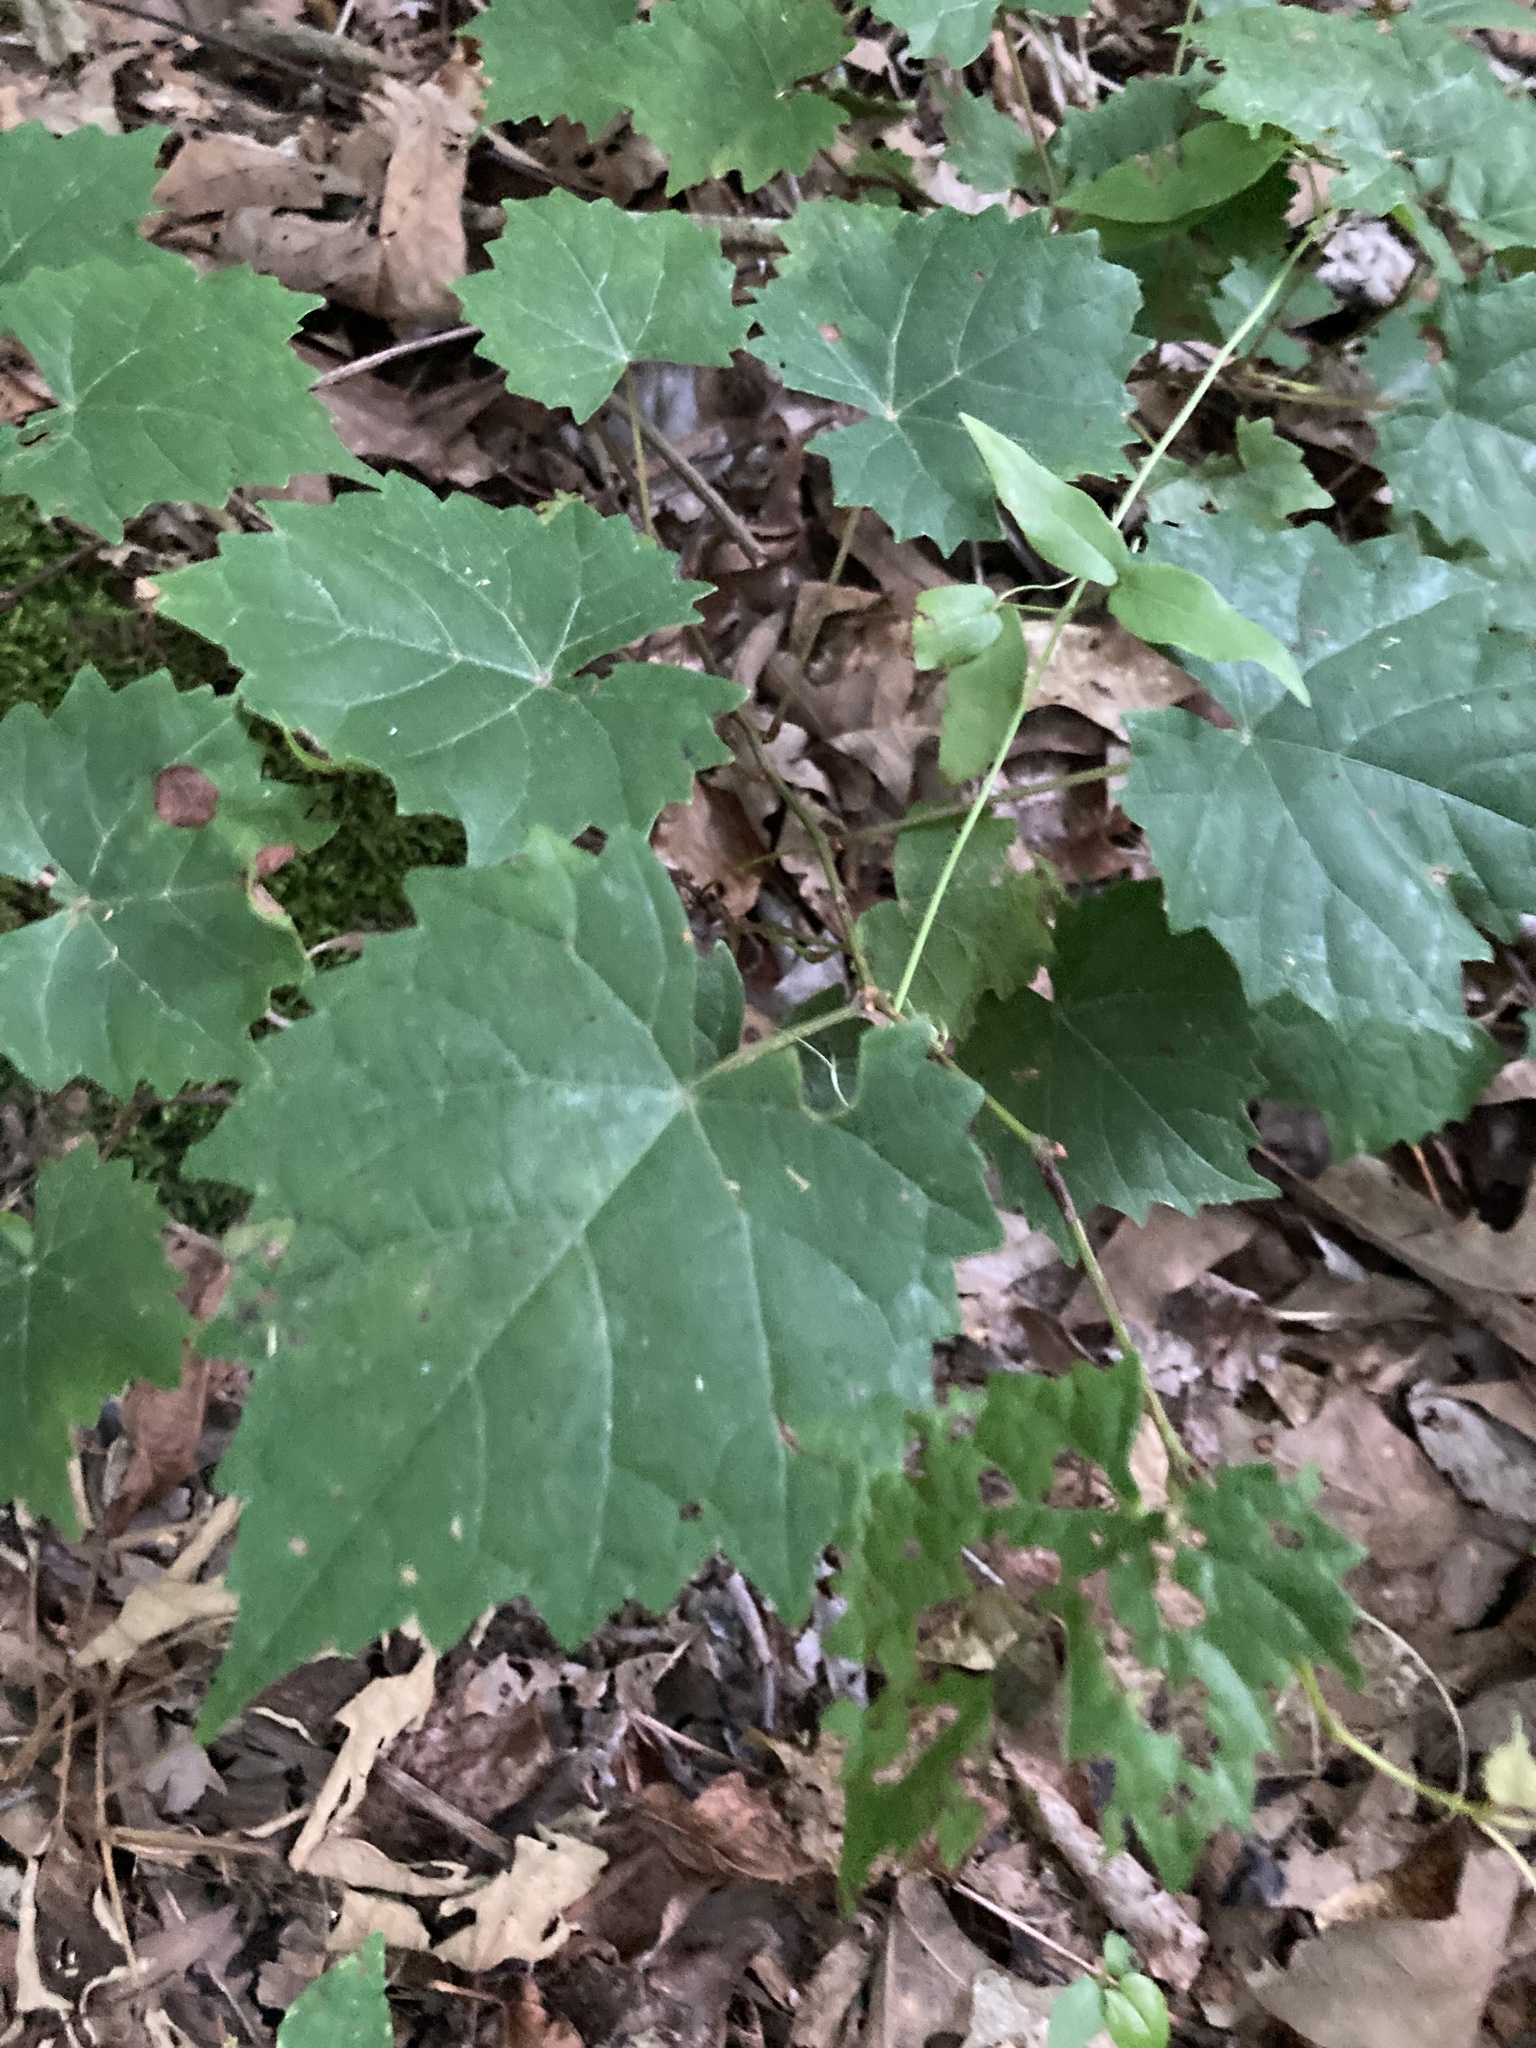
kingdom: Plantae
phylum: Tracheophyta
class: Magnoliopsida
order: Vitales
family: Vitaceae
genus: Vitis
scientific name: Vitis rotundifolia
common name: Muscadine grape
